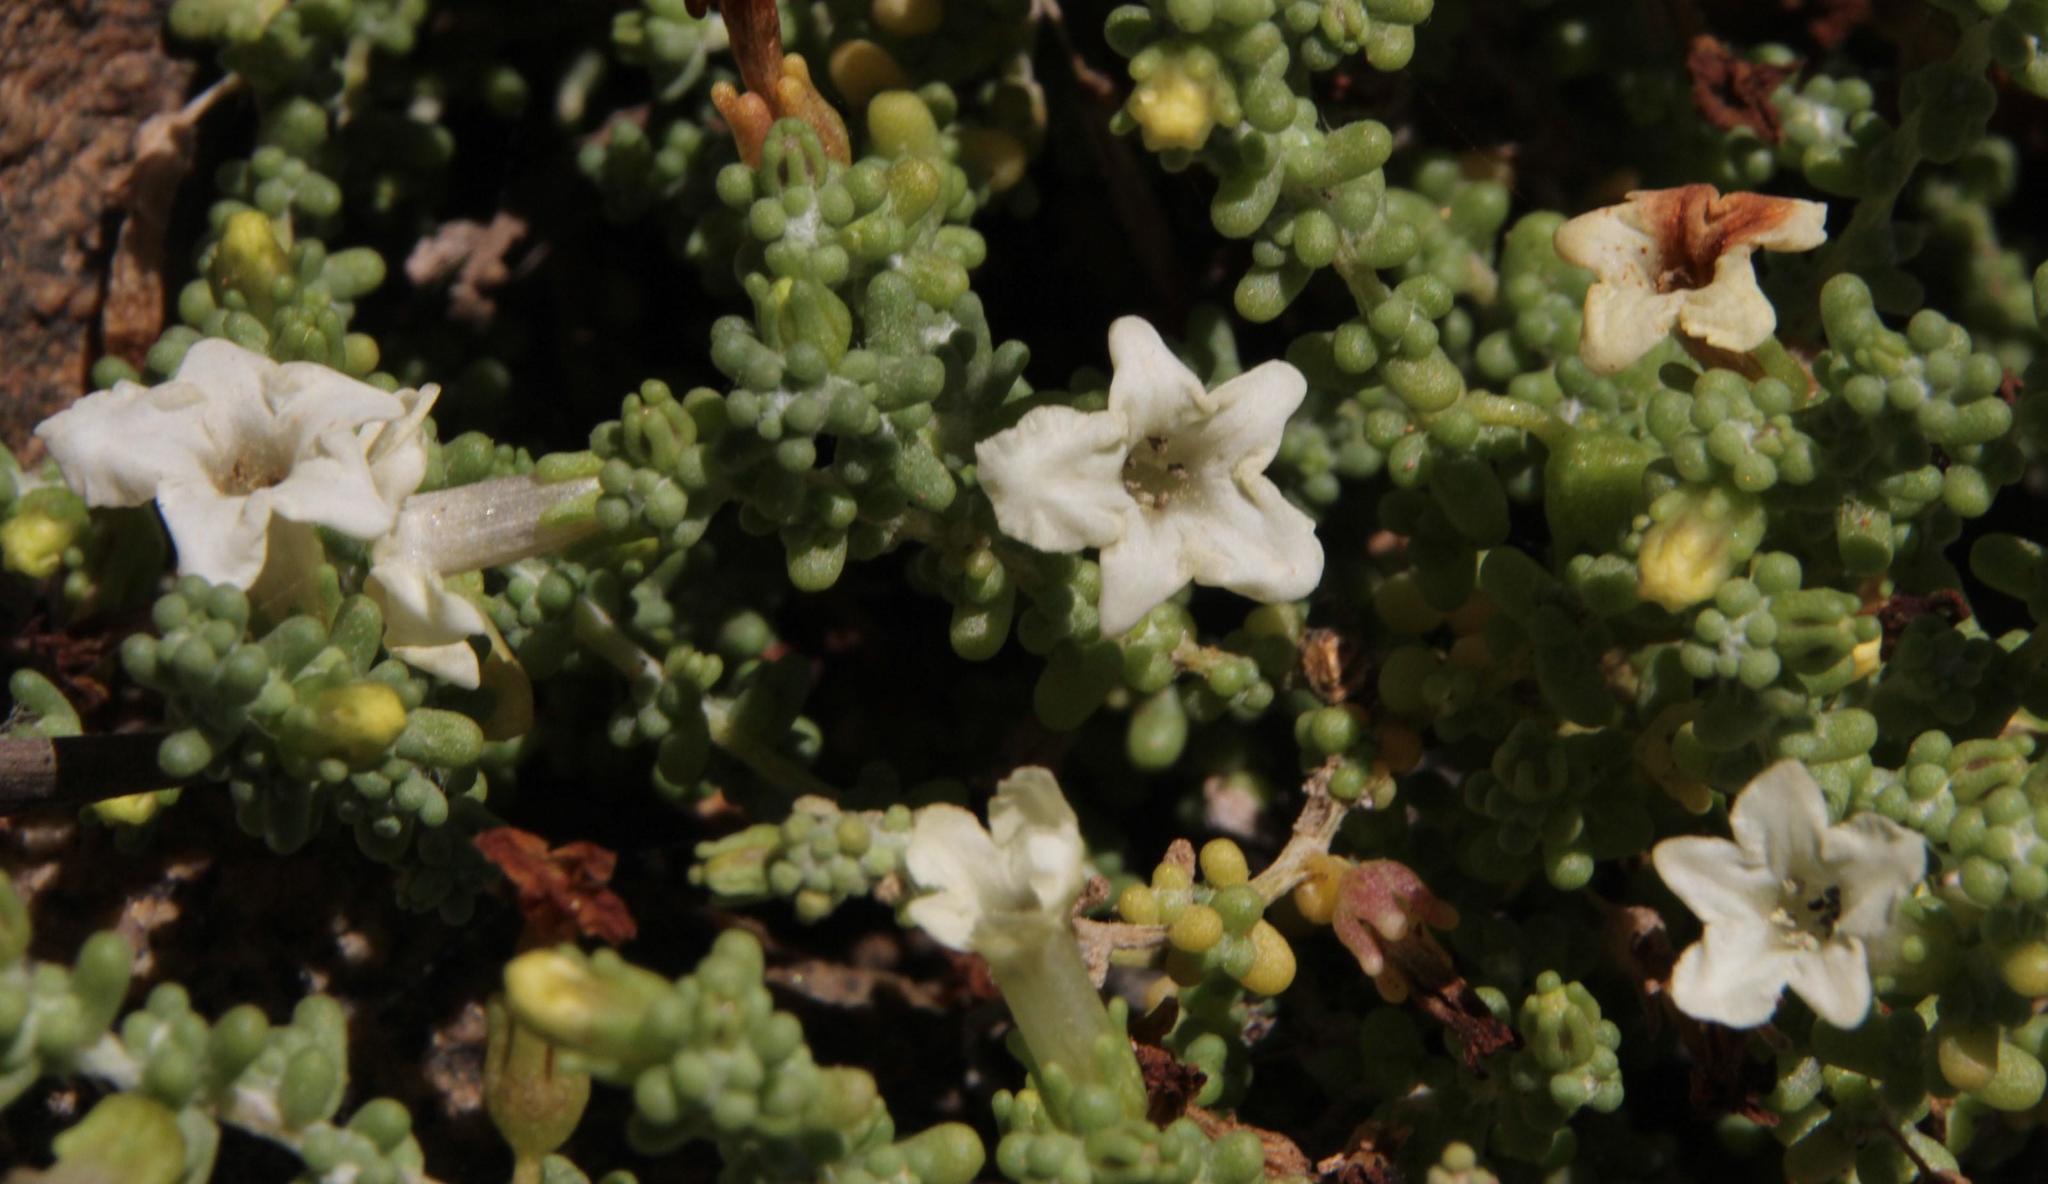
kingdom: Plantae
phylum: Tracheophyta
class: Magnoliopsida
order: Solanales
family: Solanaceae
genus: Nolana
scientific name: Nolana sedifolia
